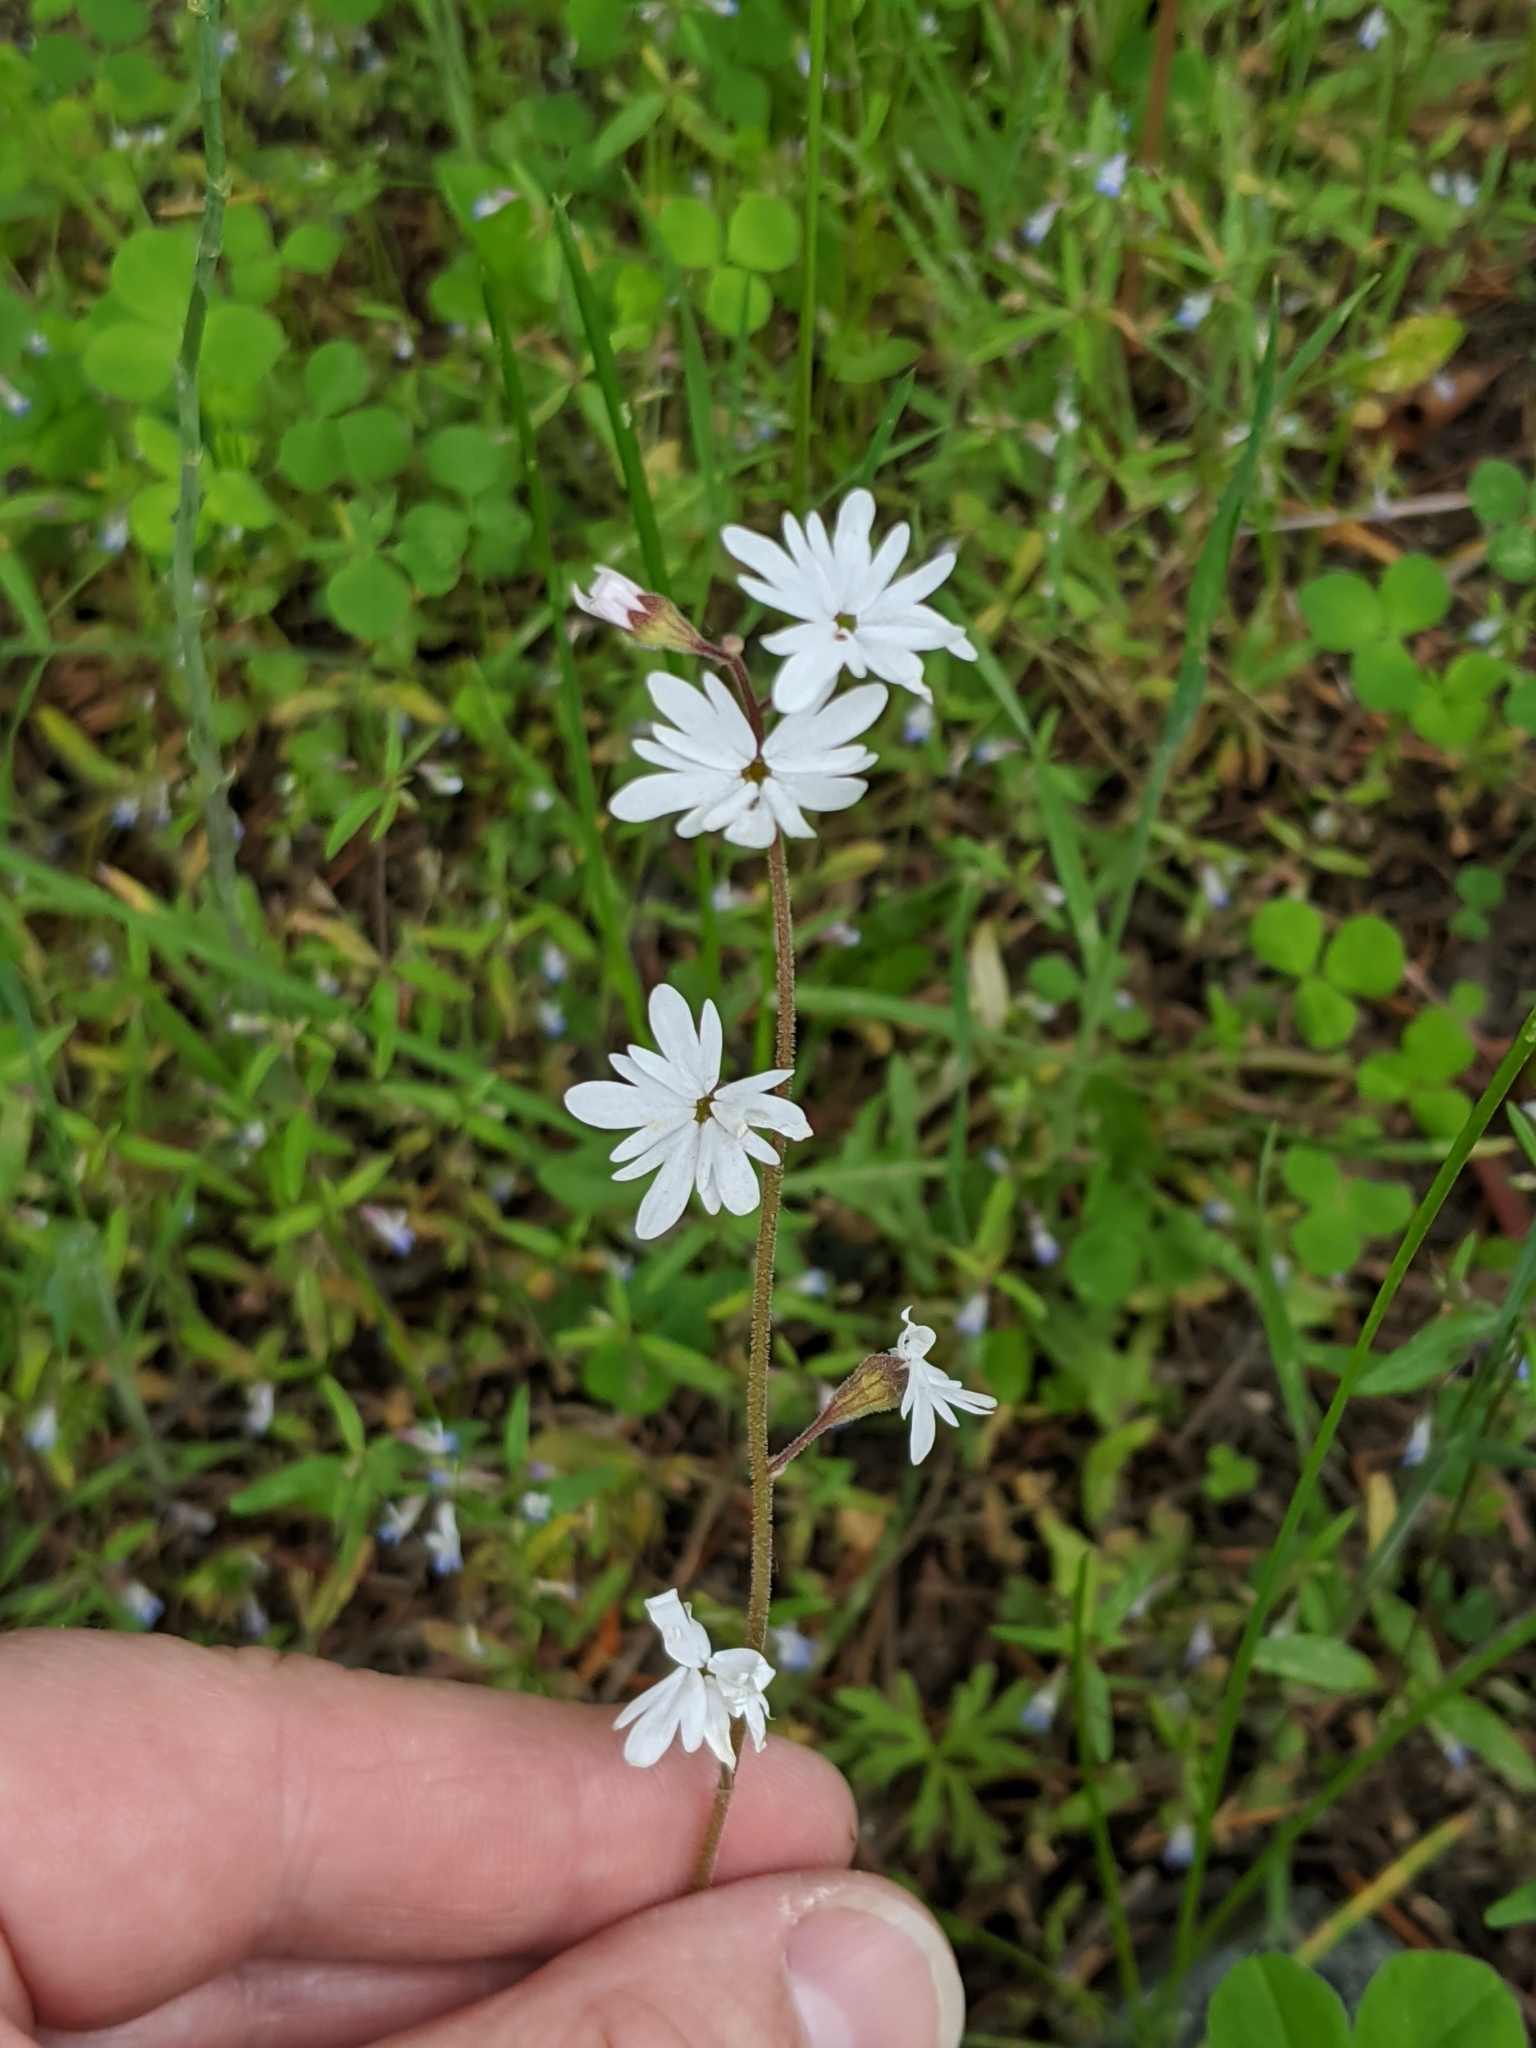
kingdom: Plantae
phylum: Tracheophyta
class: Magnoliopsida
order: Saxifragales
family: Saxifragaceae
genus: Lithophragma
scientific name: Lithophragma parviflorum
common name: Small-flowered fringe-cup
